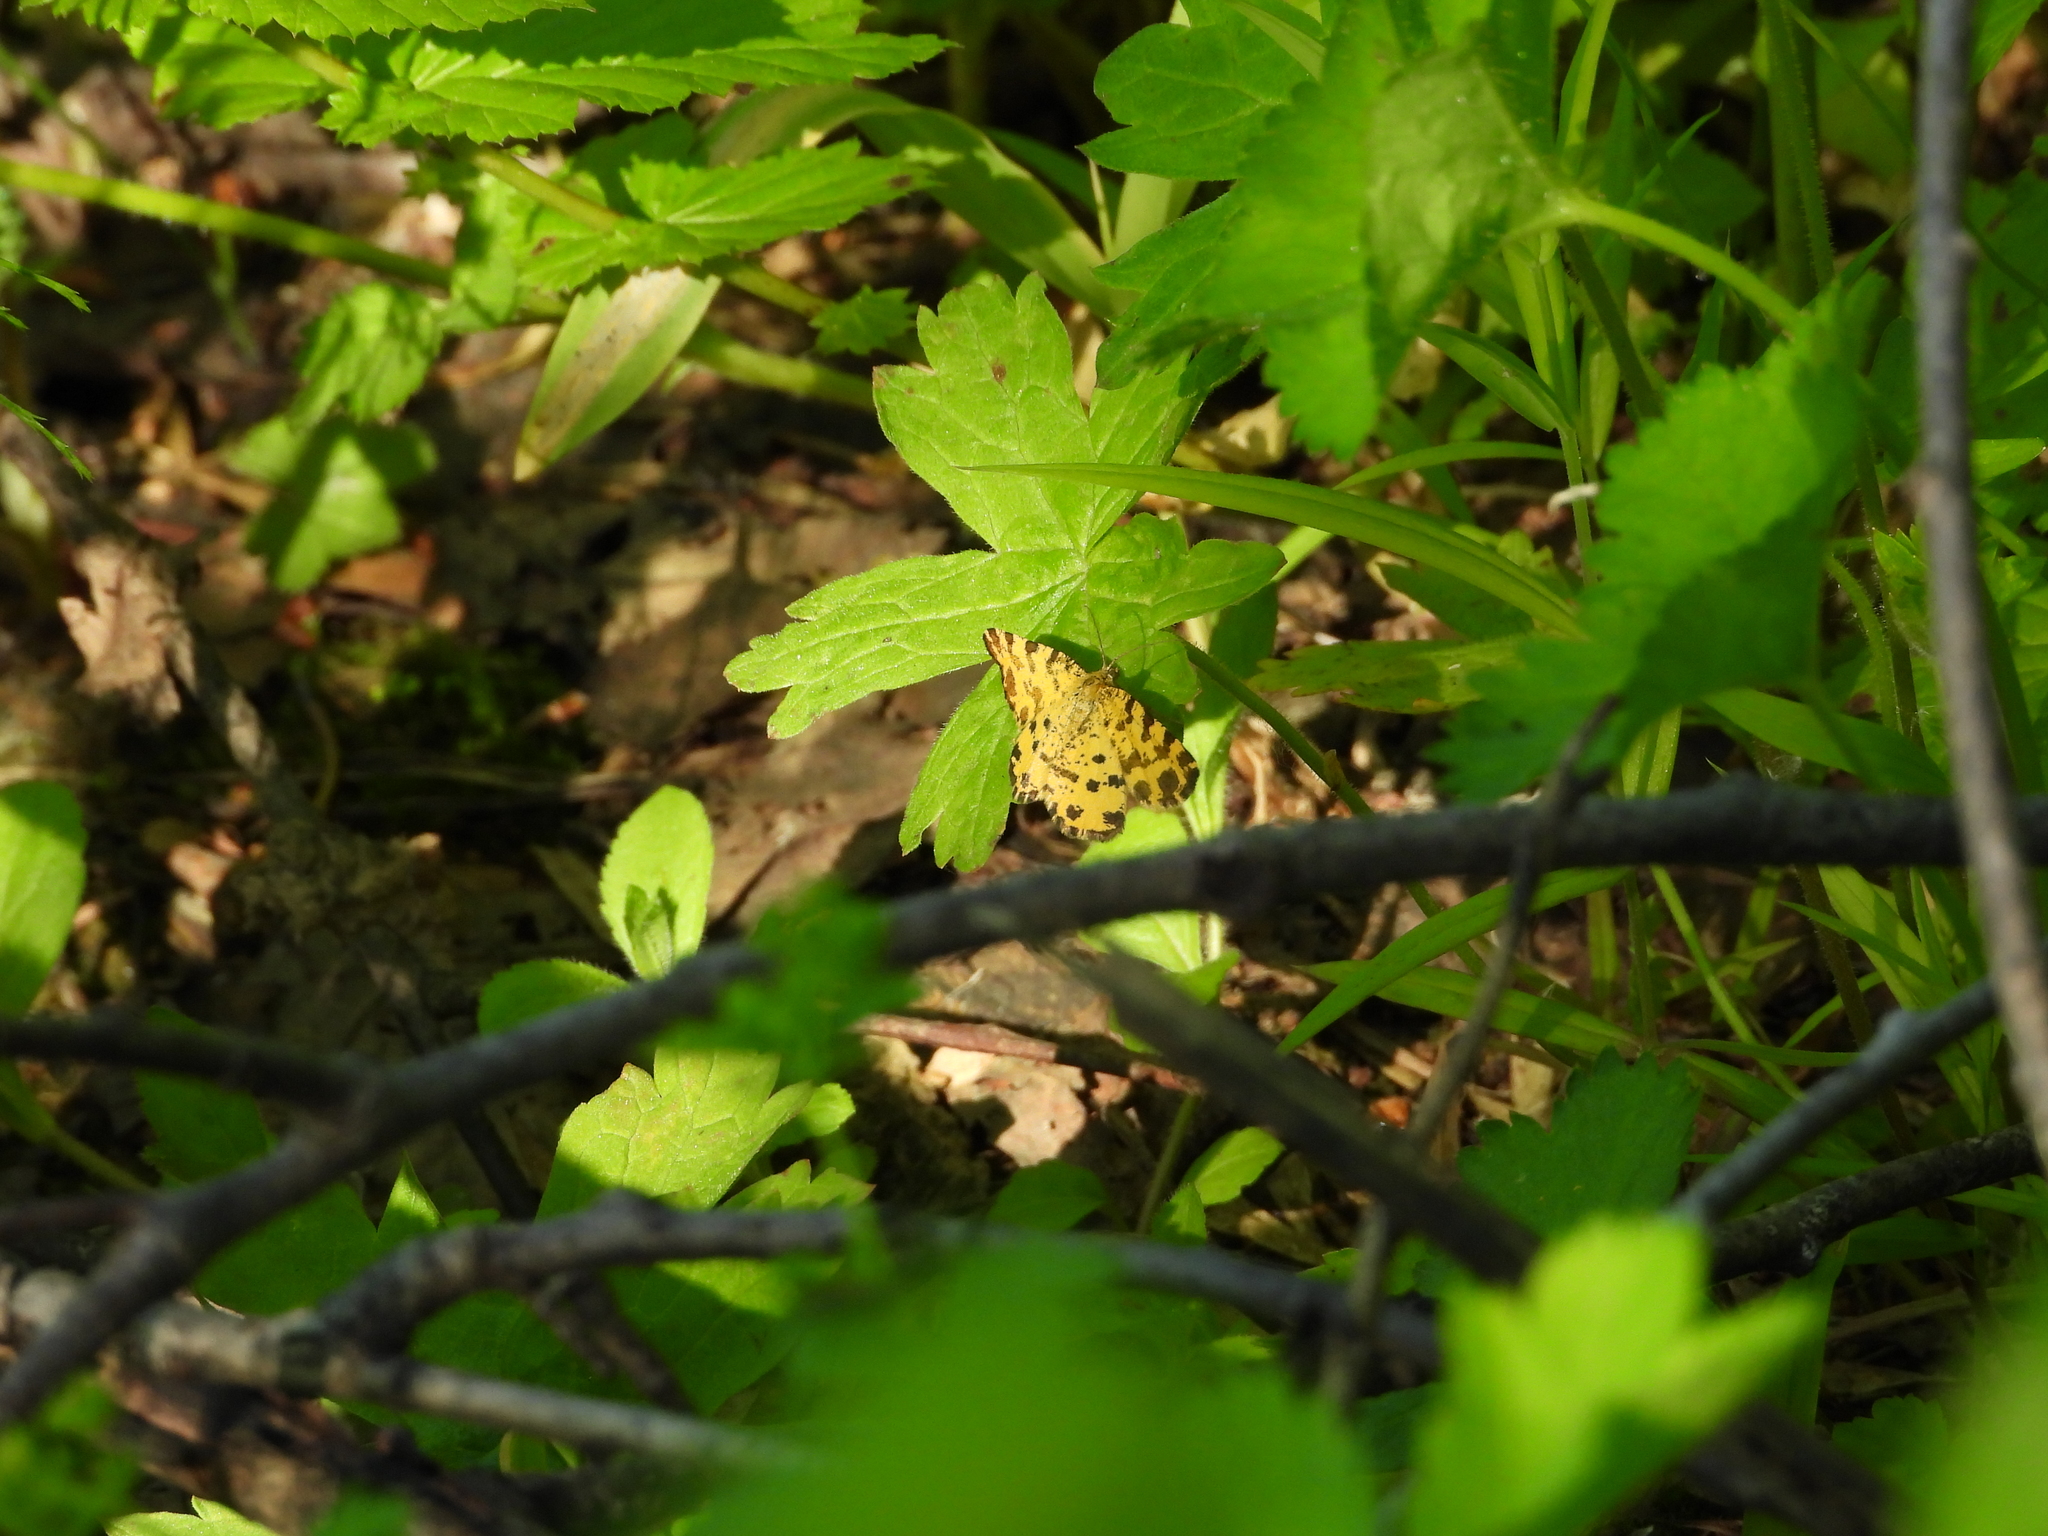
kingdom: Animalia
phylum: Arthropoda
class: Insecta
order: Lepidoptera
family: Geometridae
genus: Pseudopanthera
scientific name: Pseudopanthera macularia
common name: Speckled yellow
